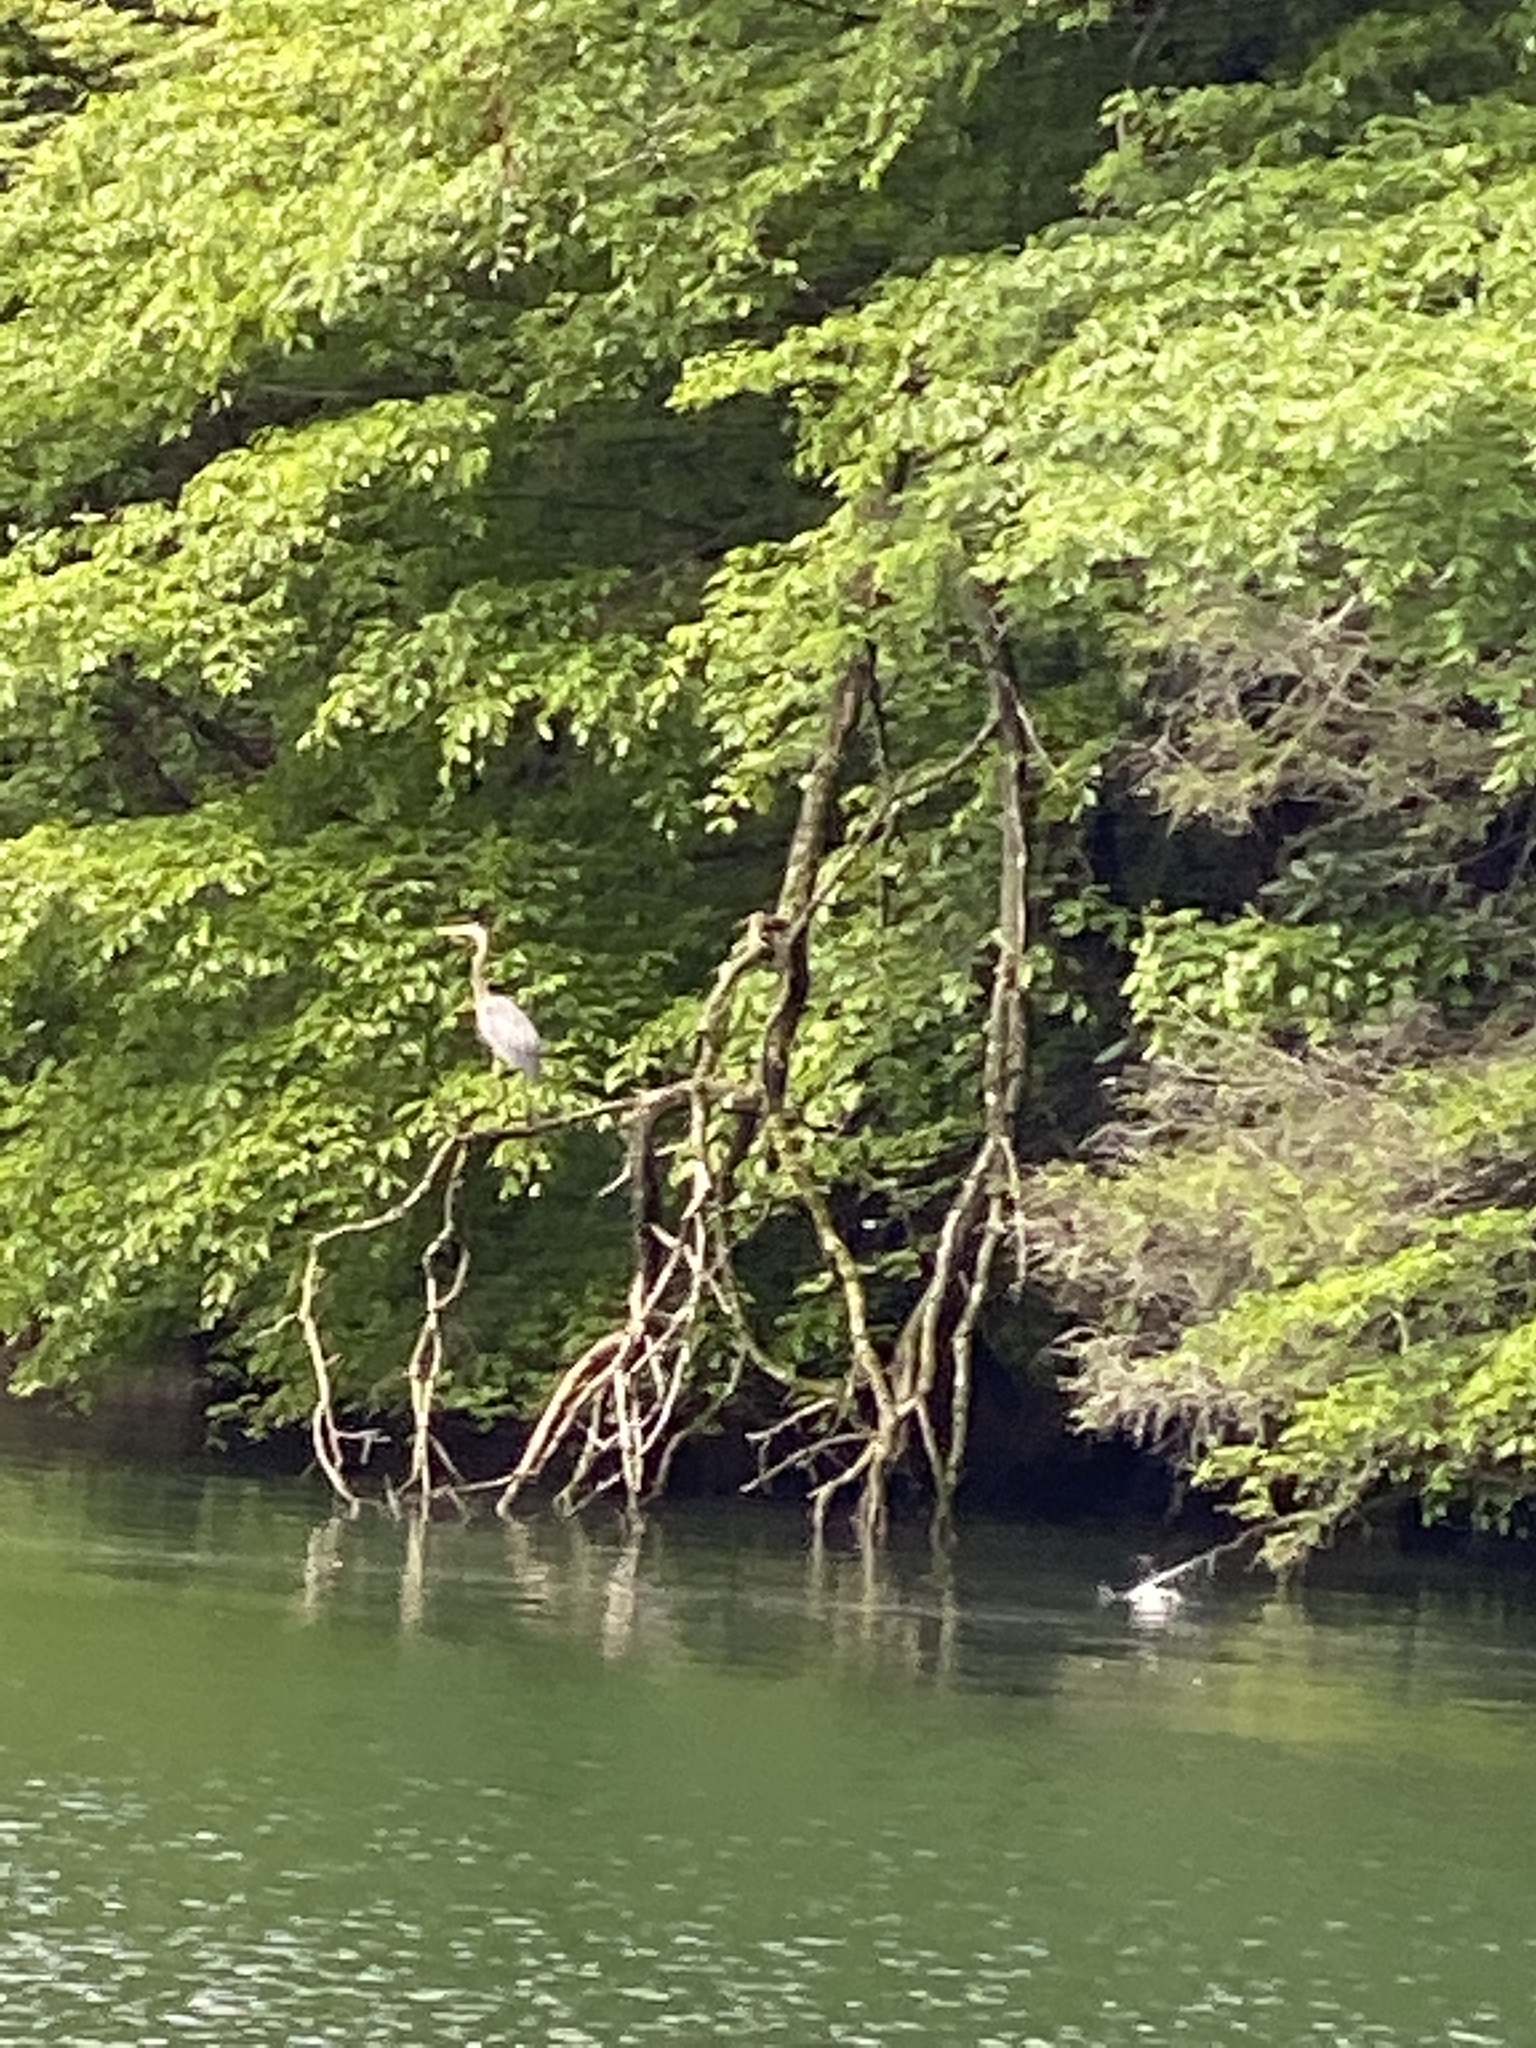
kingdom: Animalia
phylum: Chordata
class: Aves
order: Pelecaniformes
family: Ardeidae
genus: Ardea
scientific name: Ardea herodias
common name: Great blue heron
